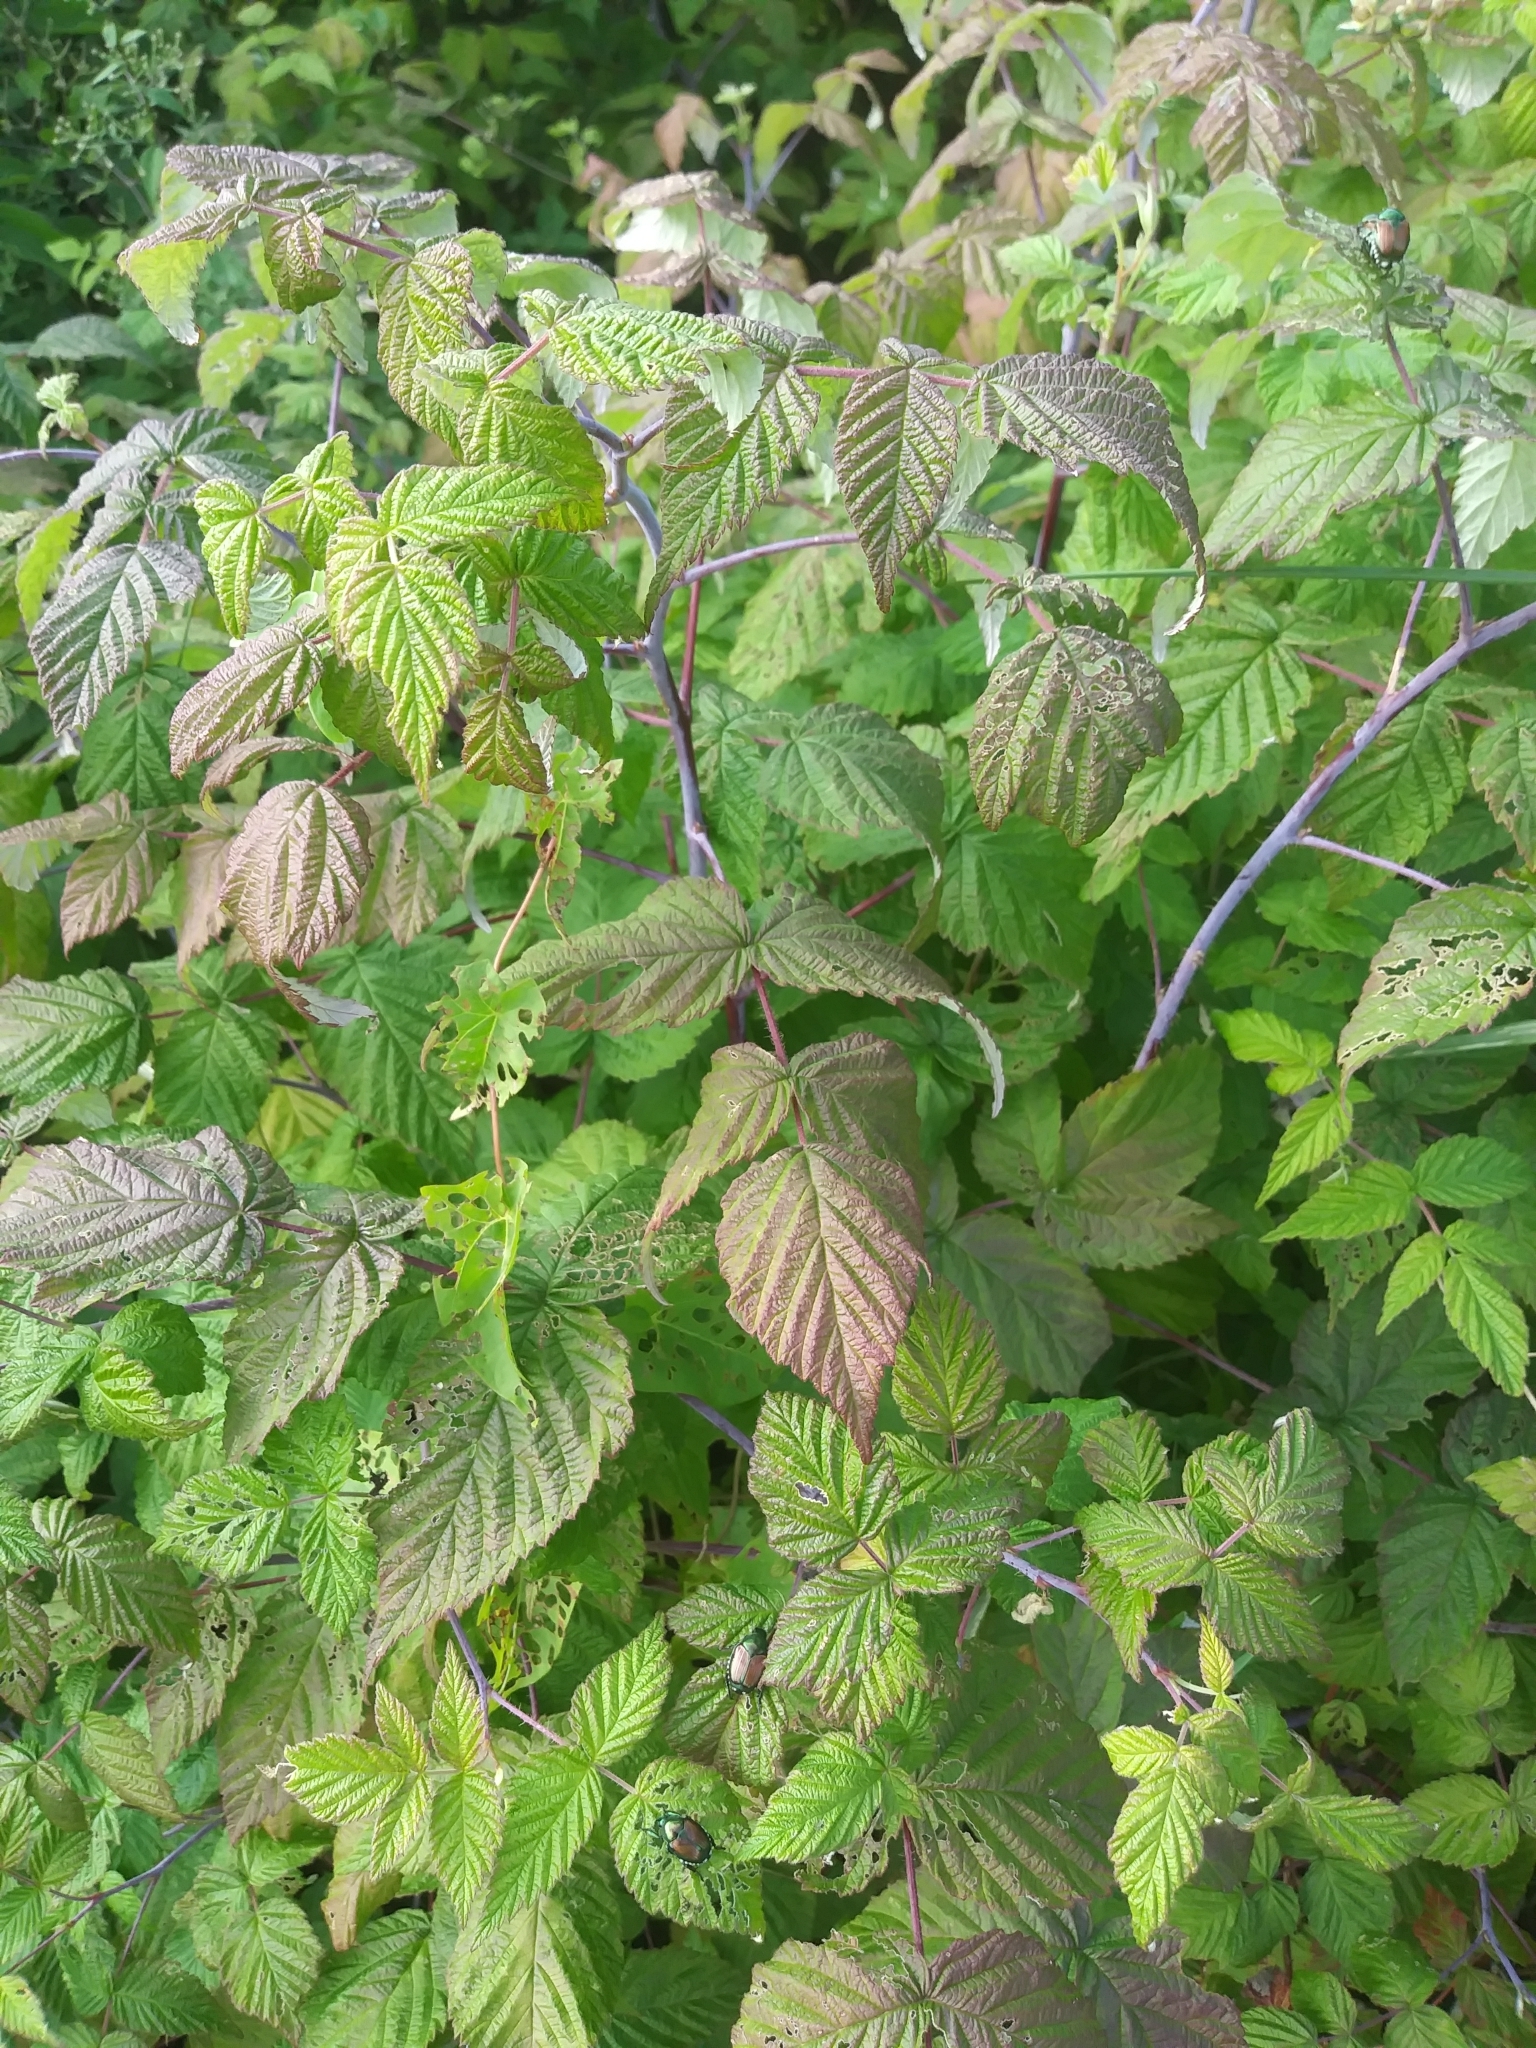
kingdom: Plantae
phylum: Tracheophyta
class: Magnoliopsida
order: Rosales
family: Rosaceae
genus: Rubus
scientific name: Rubus idaeus
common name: Raspberry
